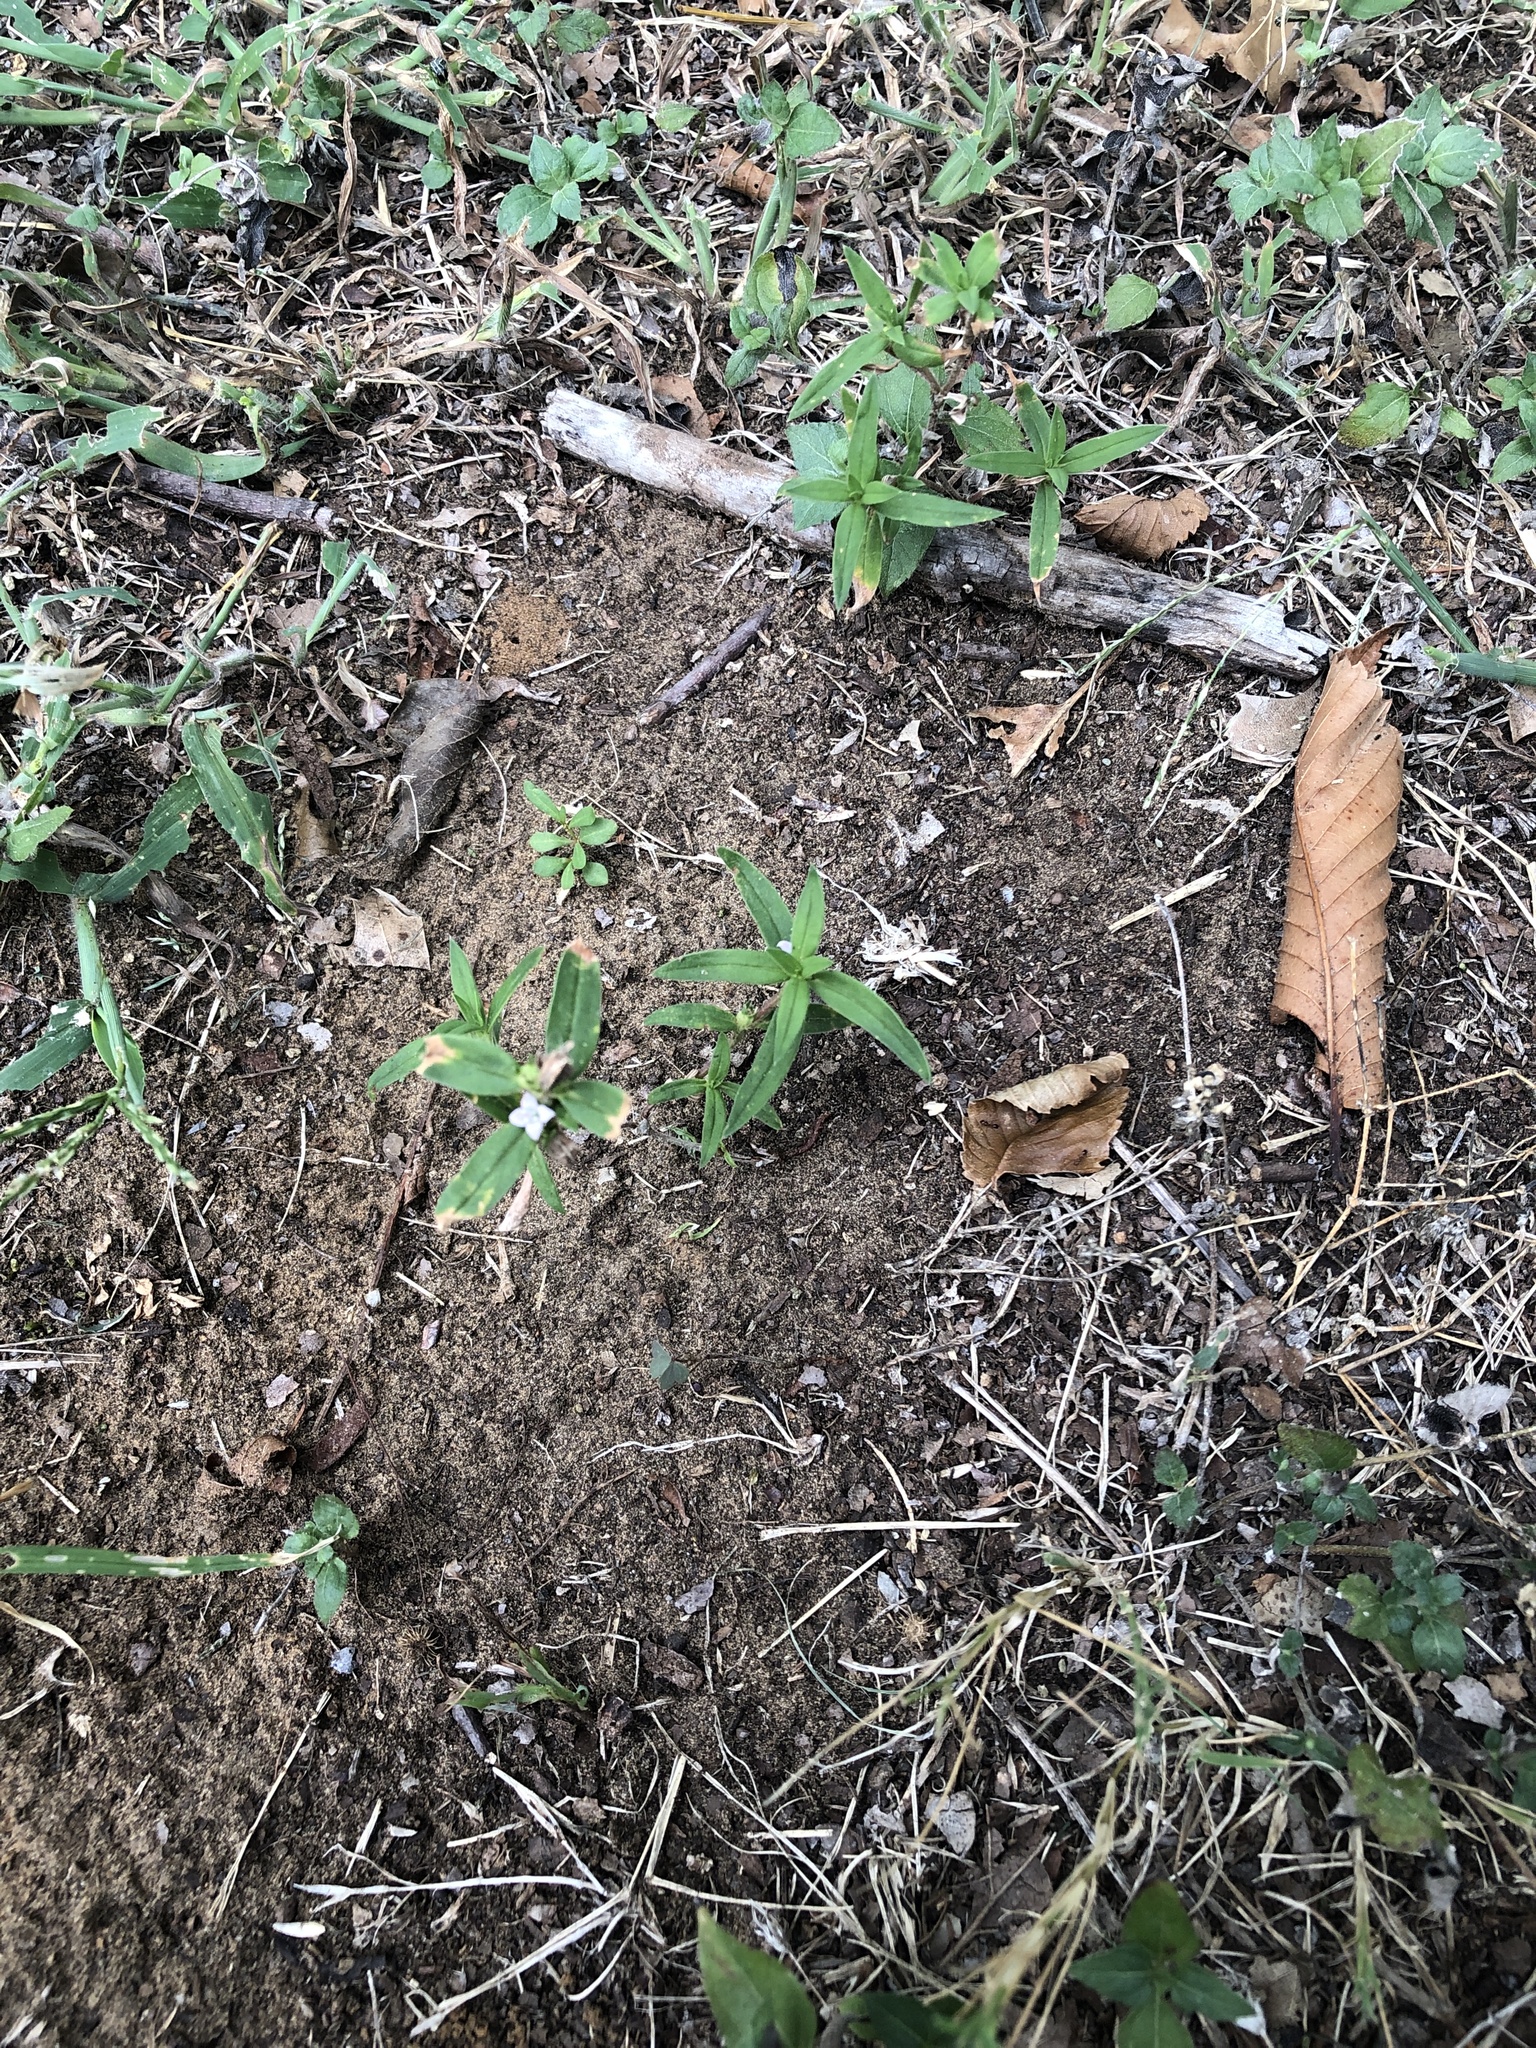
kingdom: Plantae
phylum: Tracheophyta
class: Magnoliopsida
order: Gentianales
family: Rubiaceae
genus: Hexasepalum
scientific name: Hexasepalum teres
